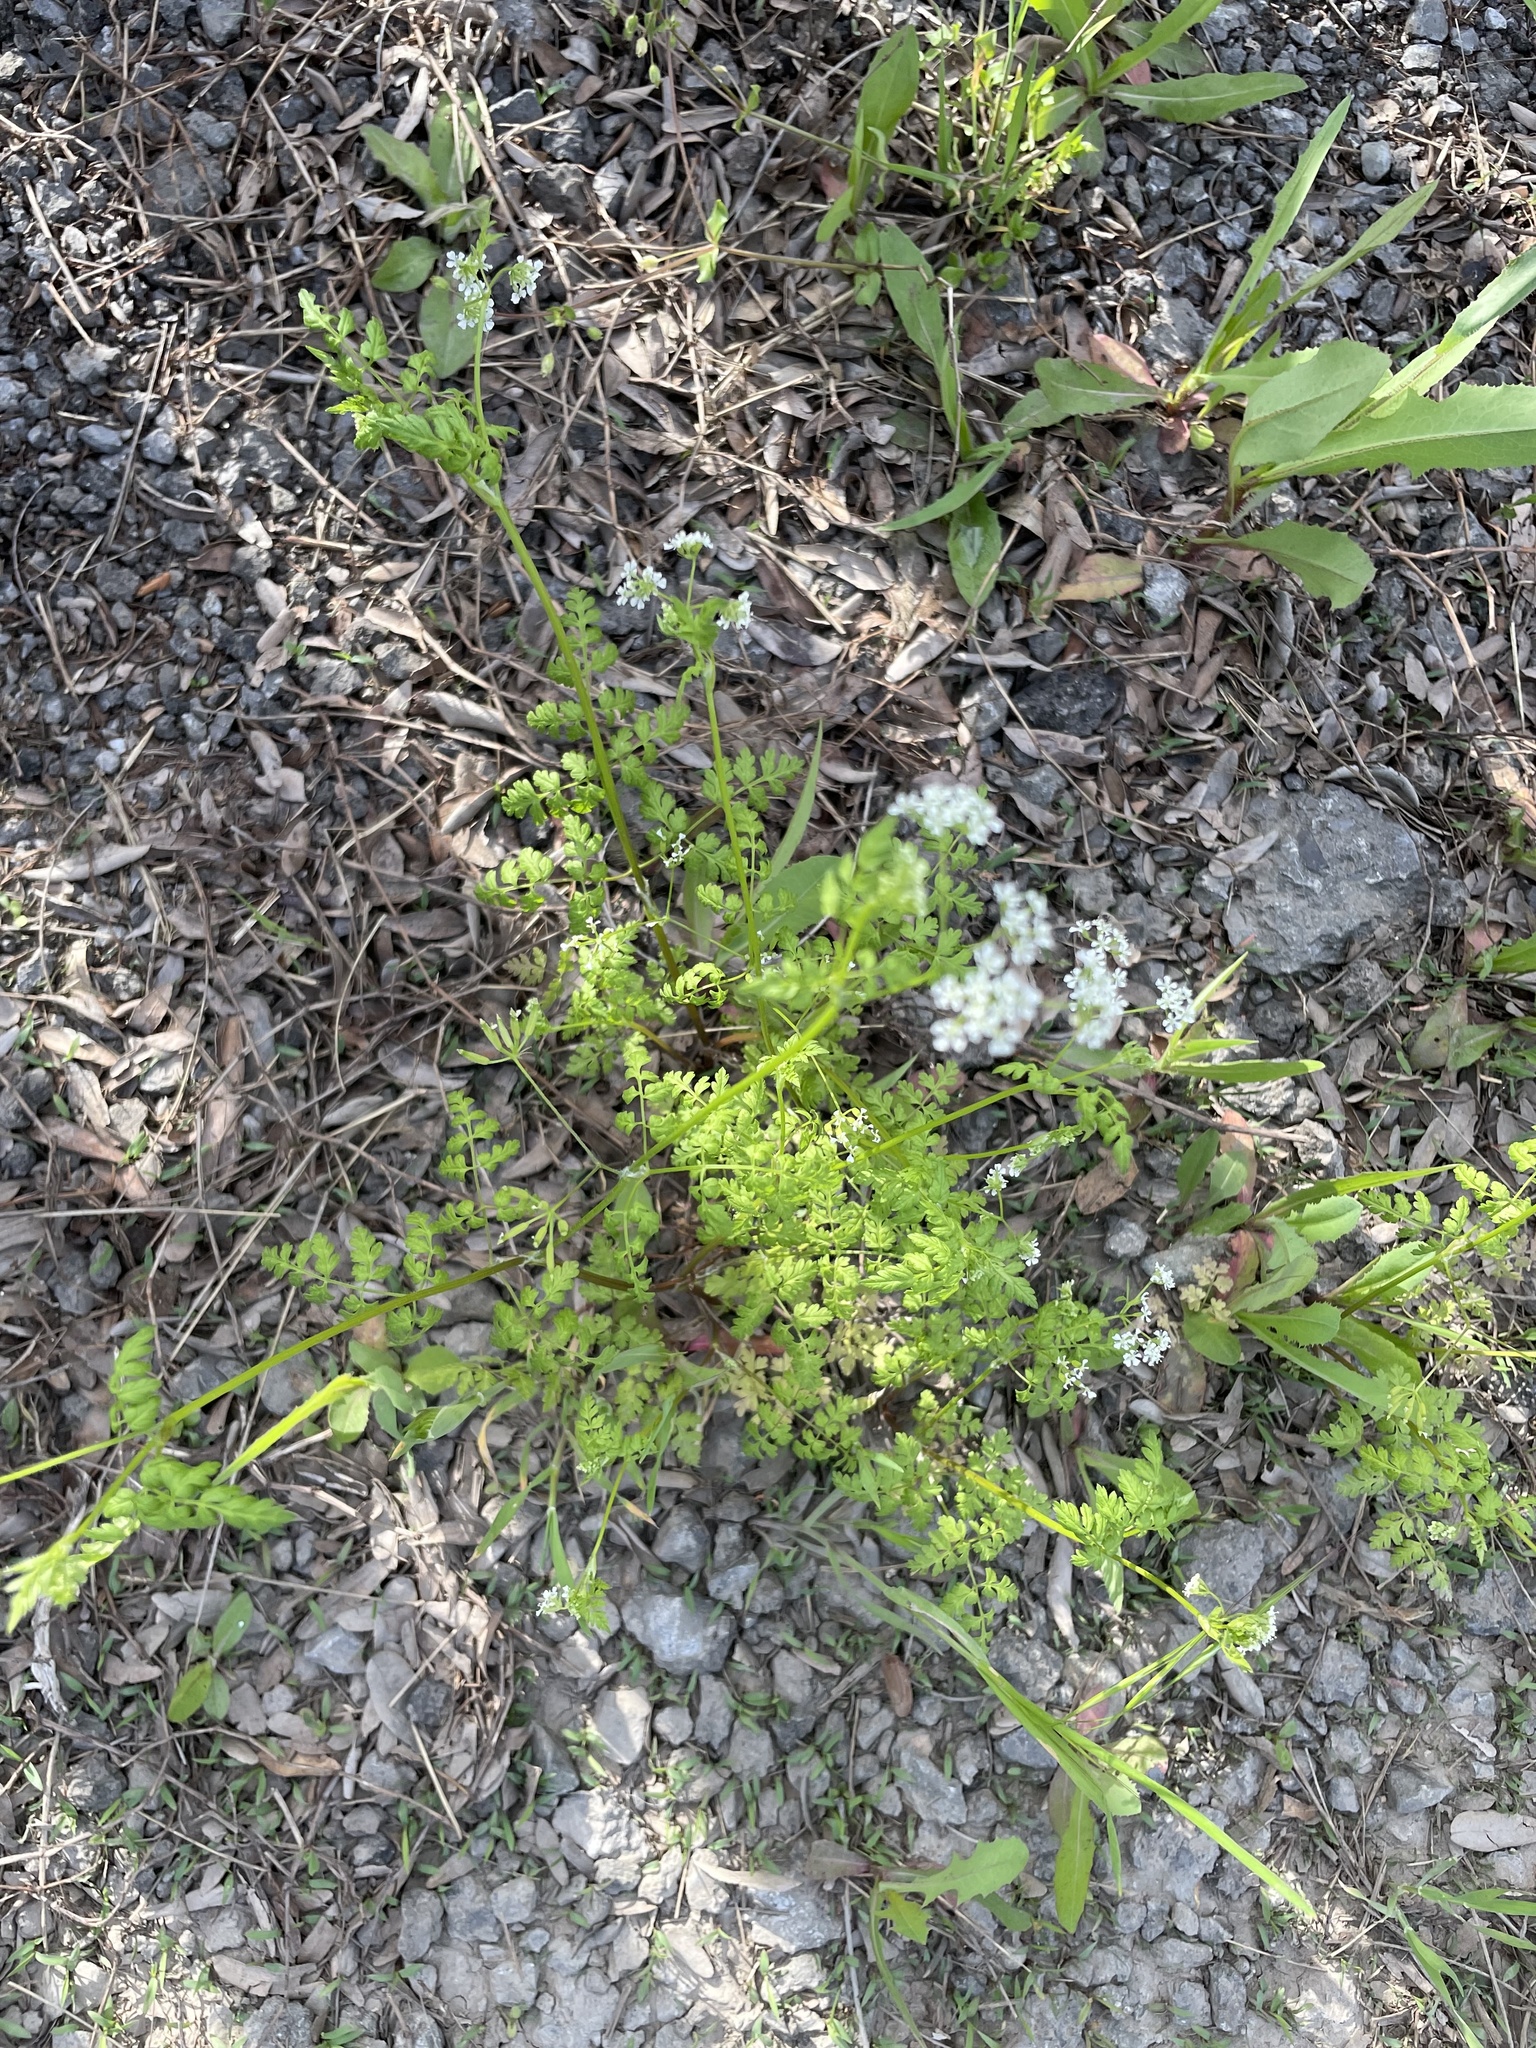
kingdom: Plantae
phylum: Tracheophyta
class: Magnoliopsida
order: Apiales
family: Apiaceae
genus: Anthriscus
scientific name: Anthriscus cerefolium
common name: Garden chervil
